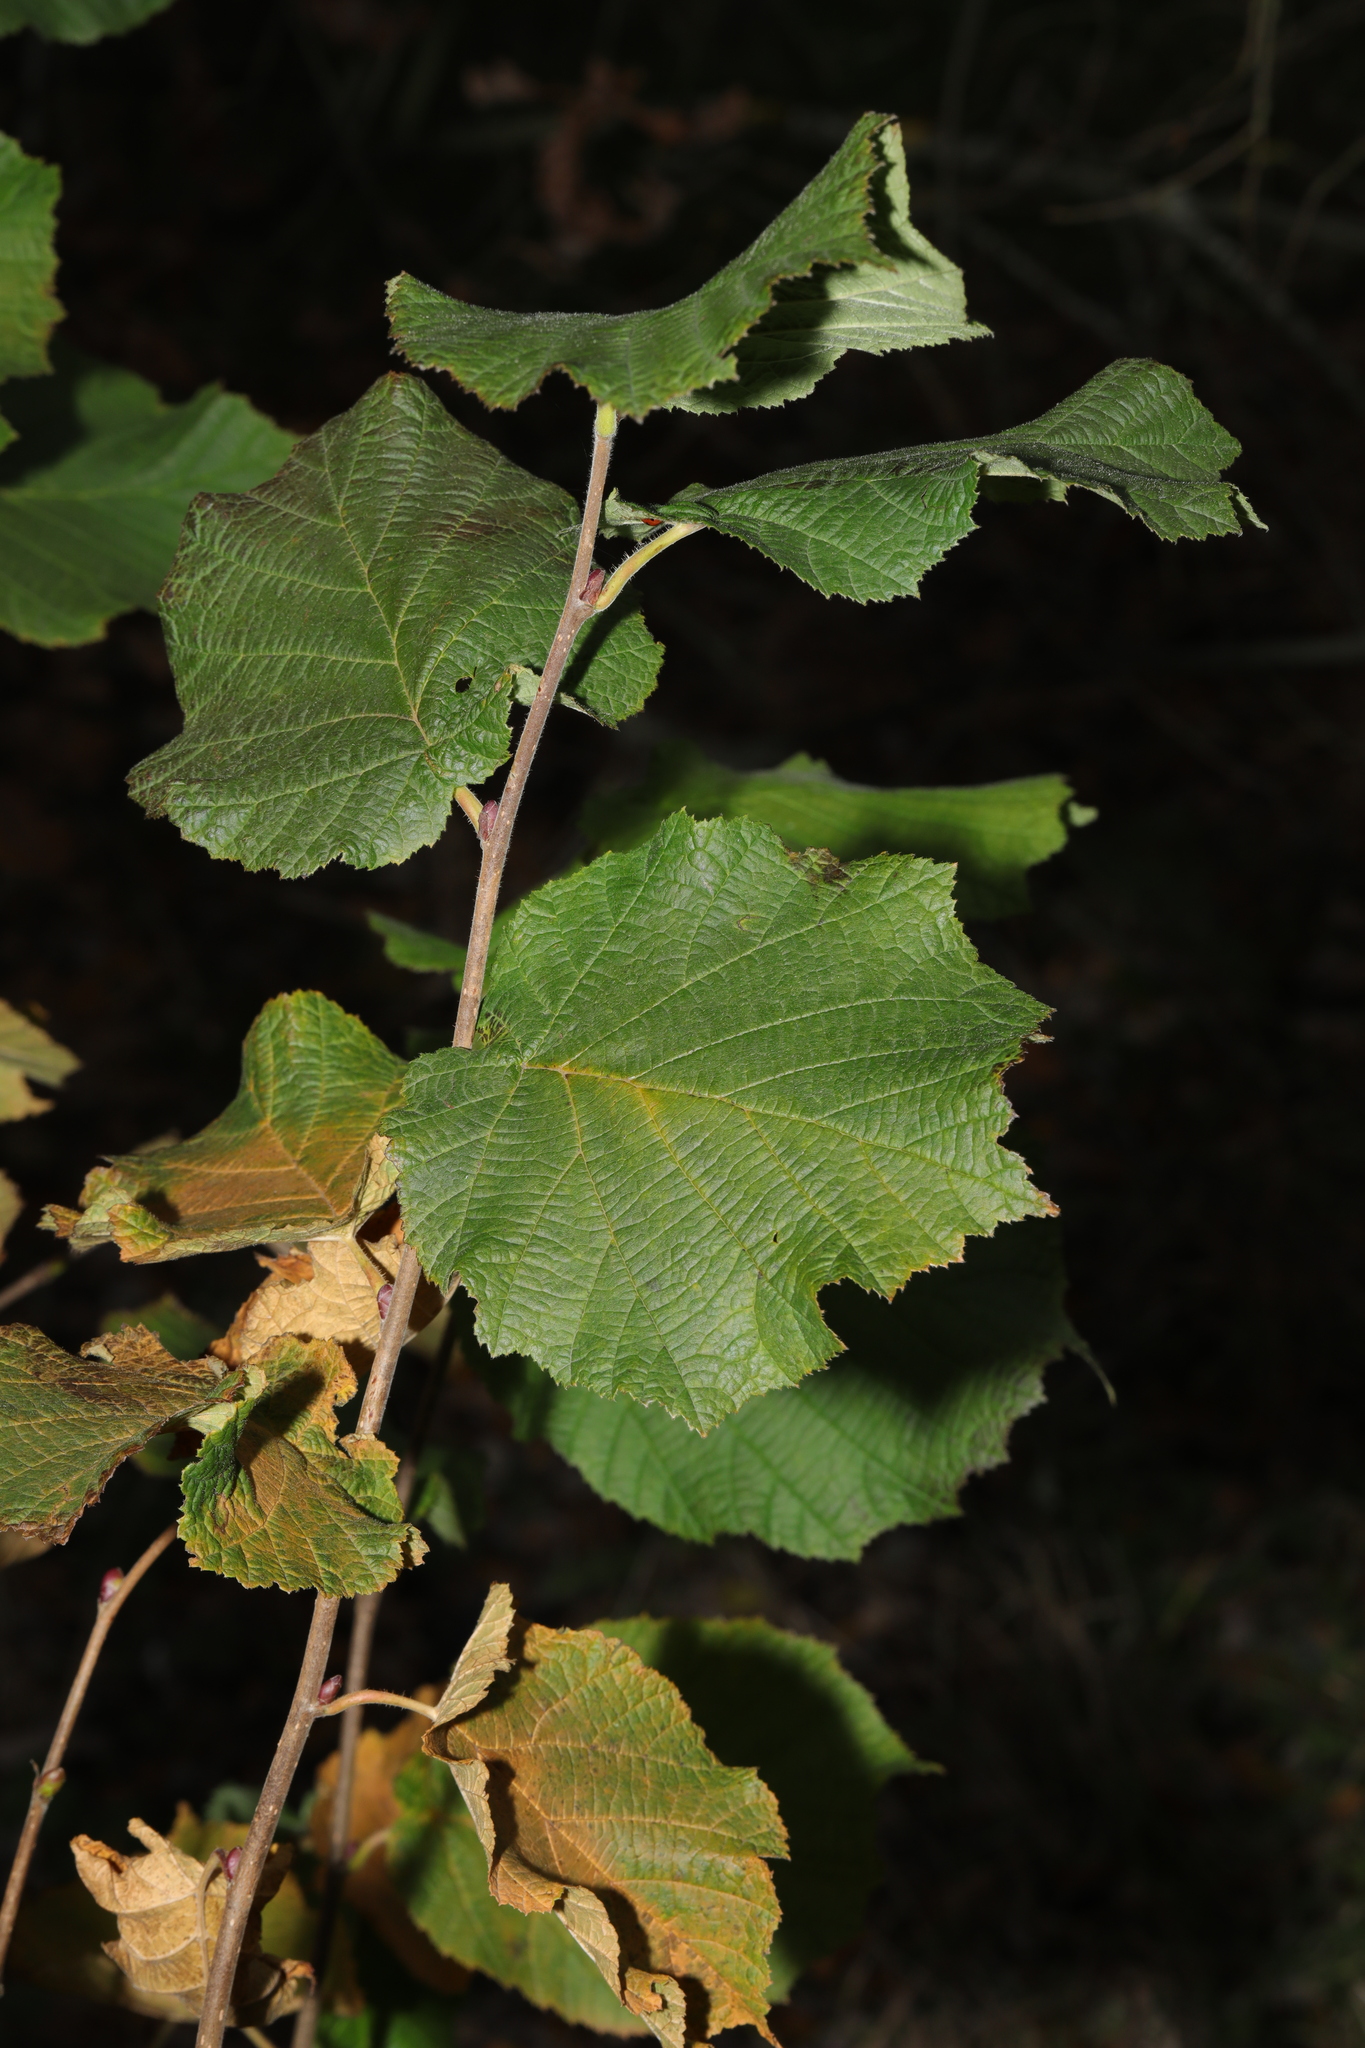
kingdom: Plantae
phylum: Tracheophyta
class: Magnoliopsida
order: Fagales
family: Betulaceae
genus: Corylus
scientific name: Corylus avellana
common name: European hazel
